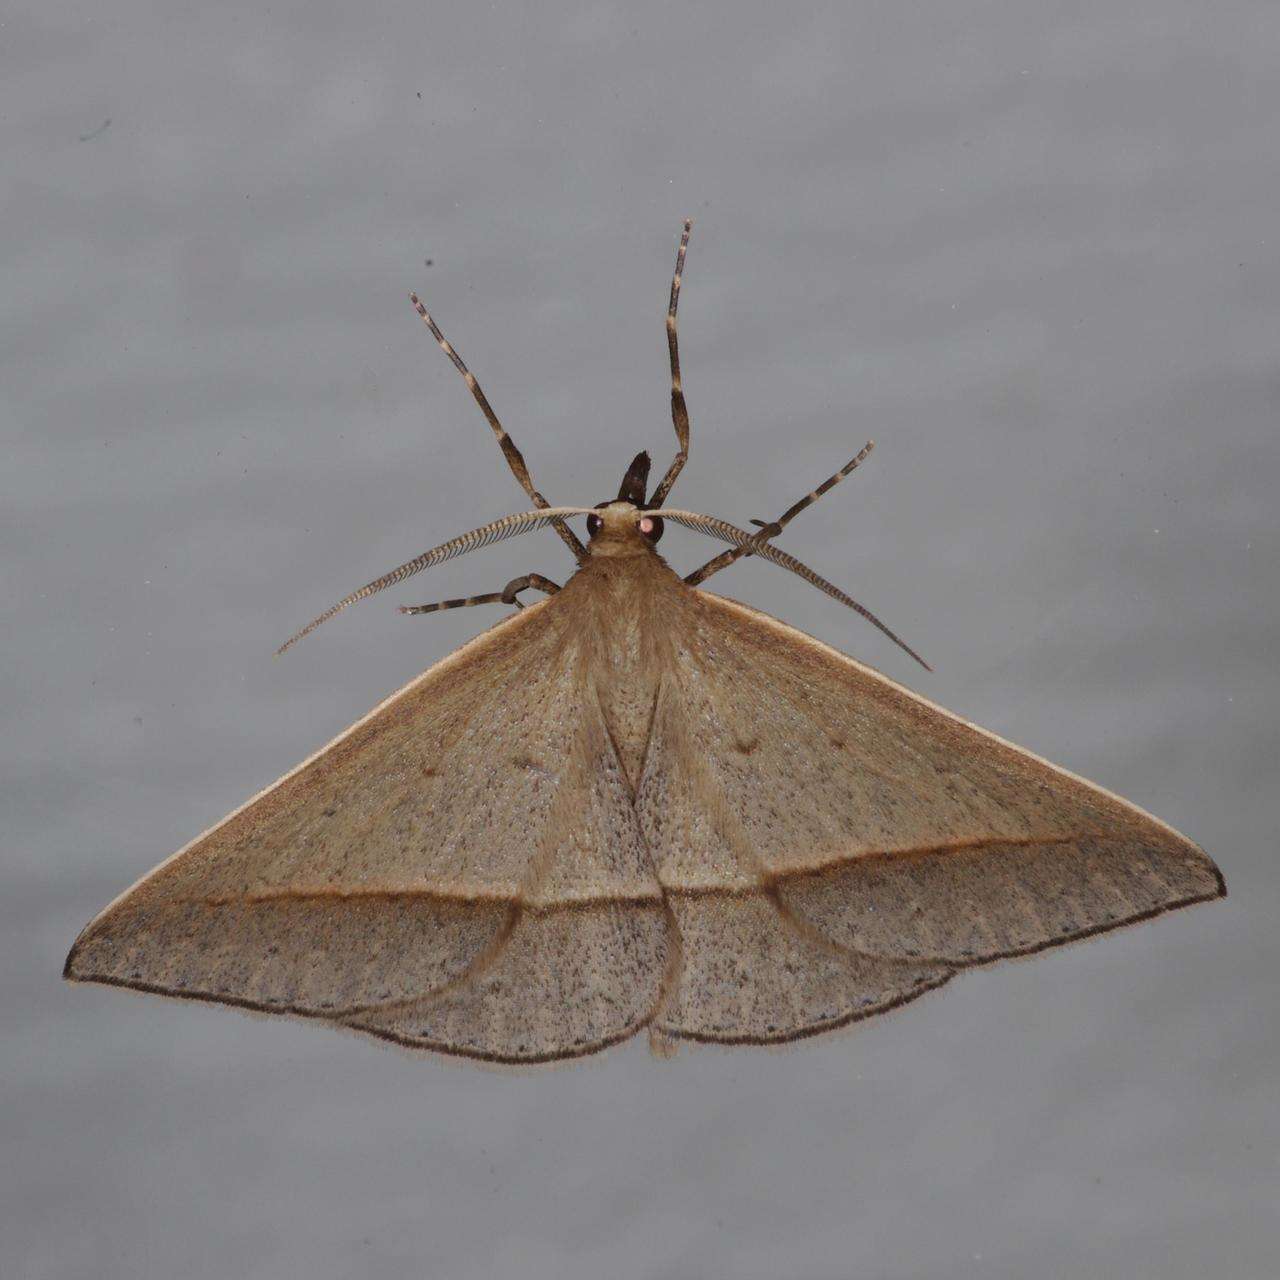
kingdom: Animalia
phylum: Arthropoda
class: Insecta
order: Lepidoptera
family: Geometridae
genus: Epidesmia
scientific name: Epidesmia tryxaria
